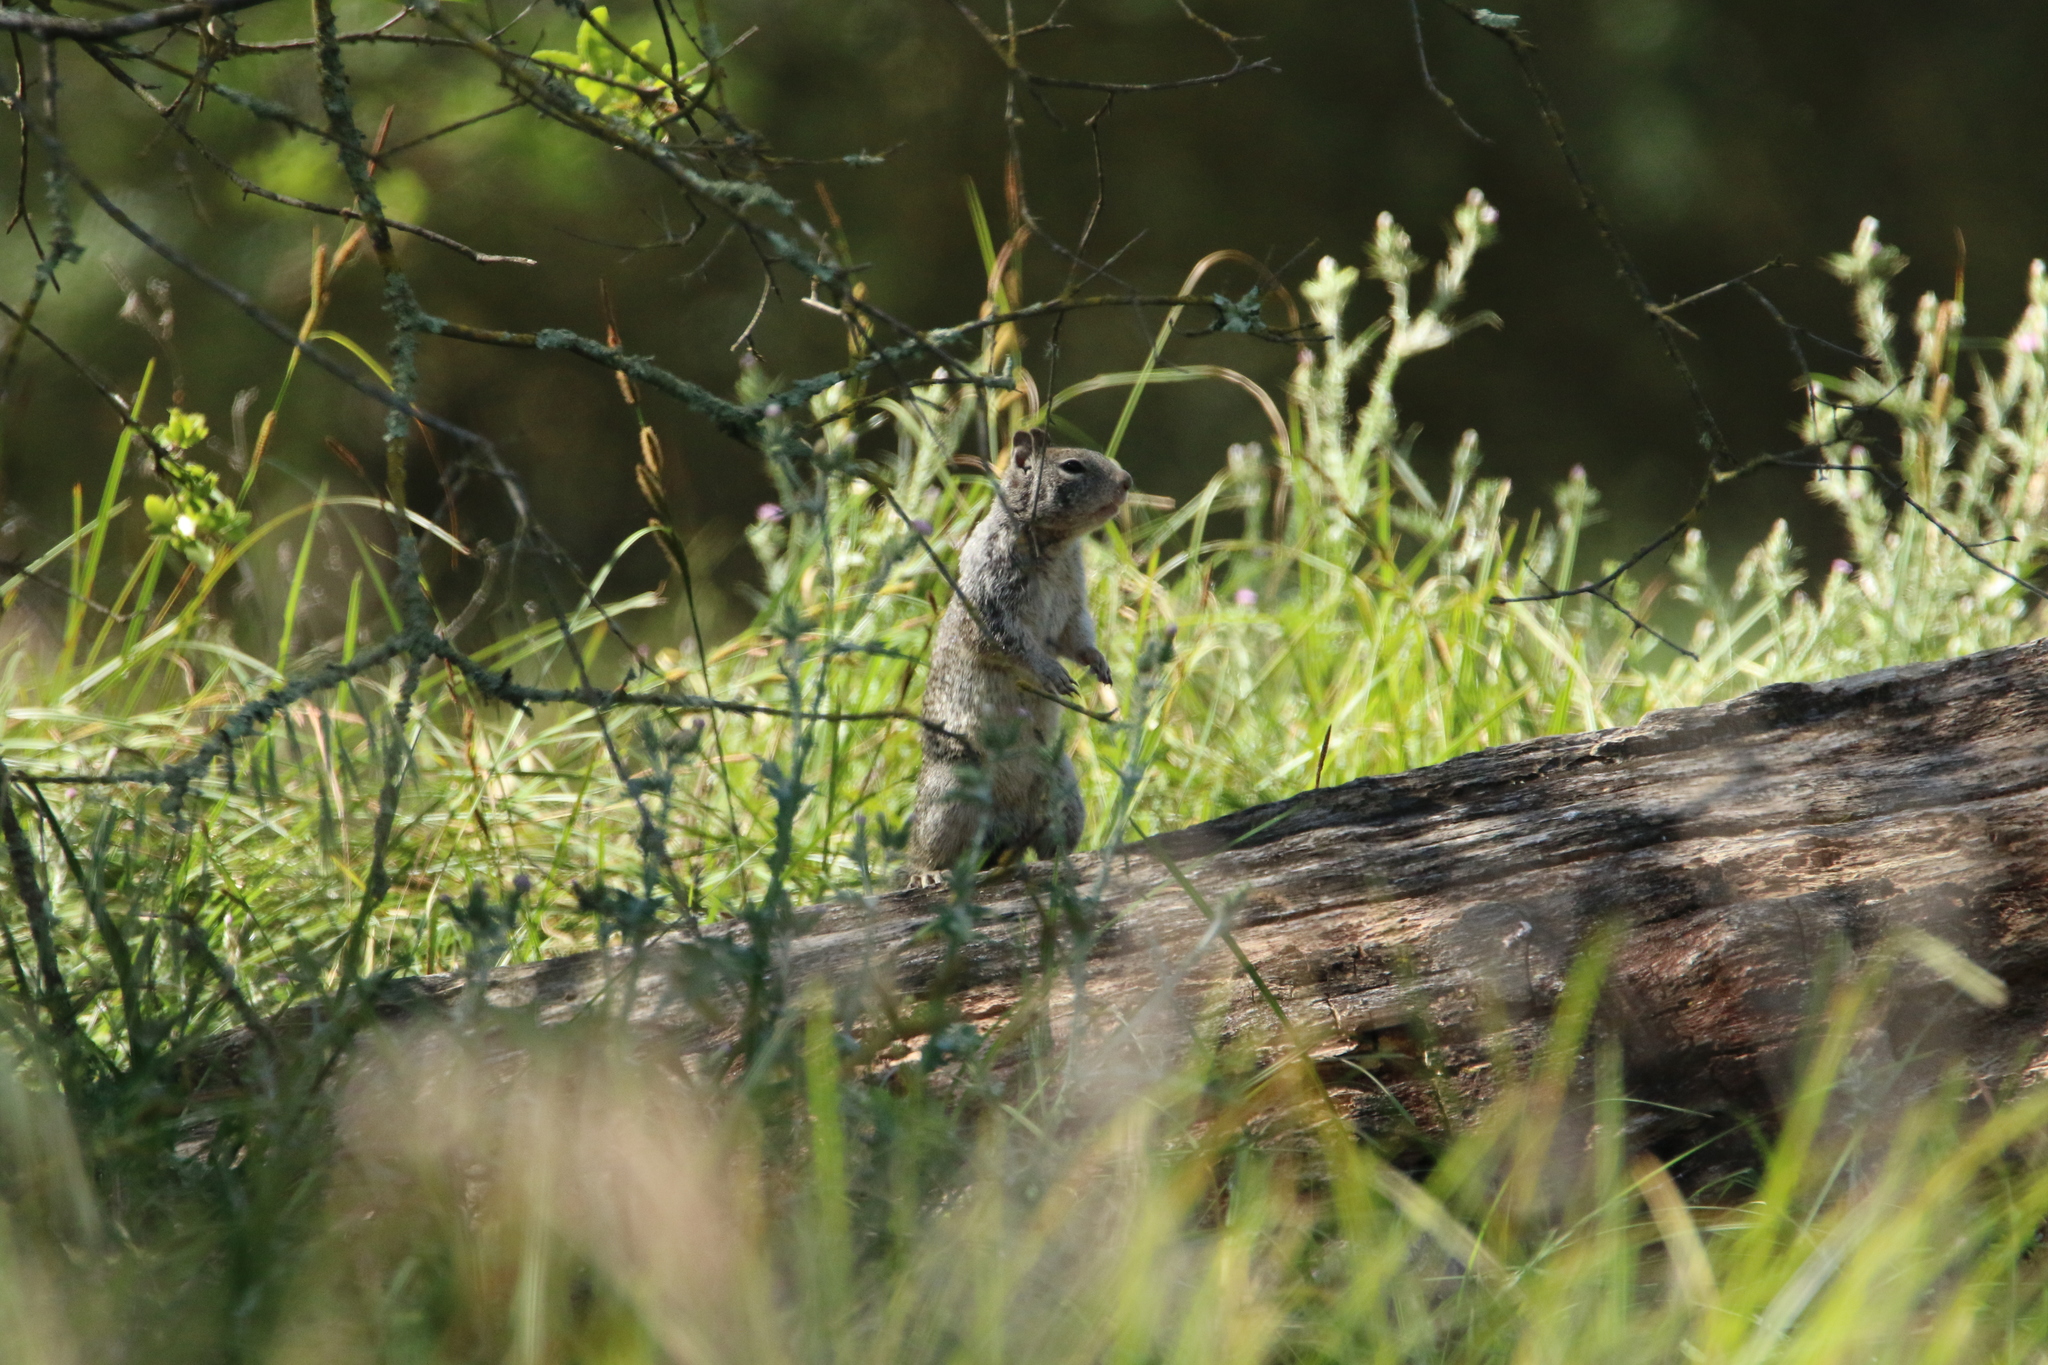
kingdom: Animalia
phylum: Chordata
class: Mammalia
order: Rodentia
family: Sciuridae
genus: Otospermophilus
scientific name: Otospermophilus beecheyi
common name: California ground squirrel
